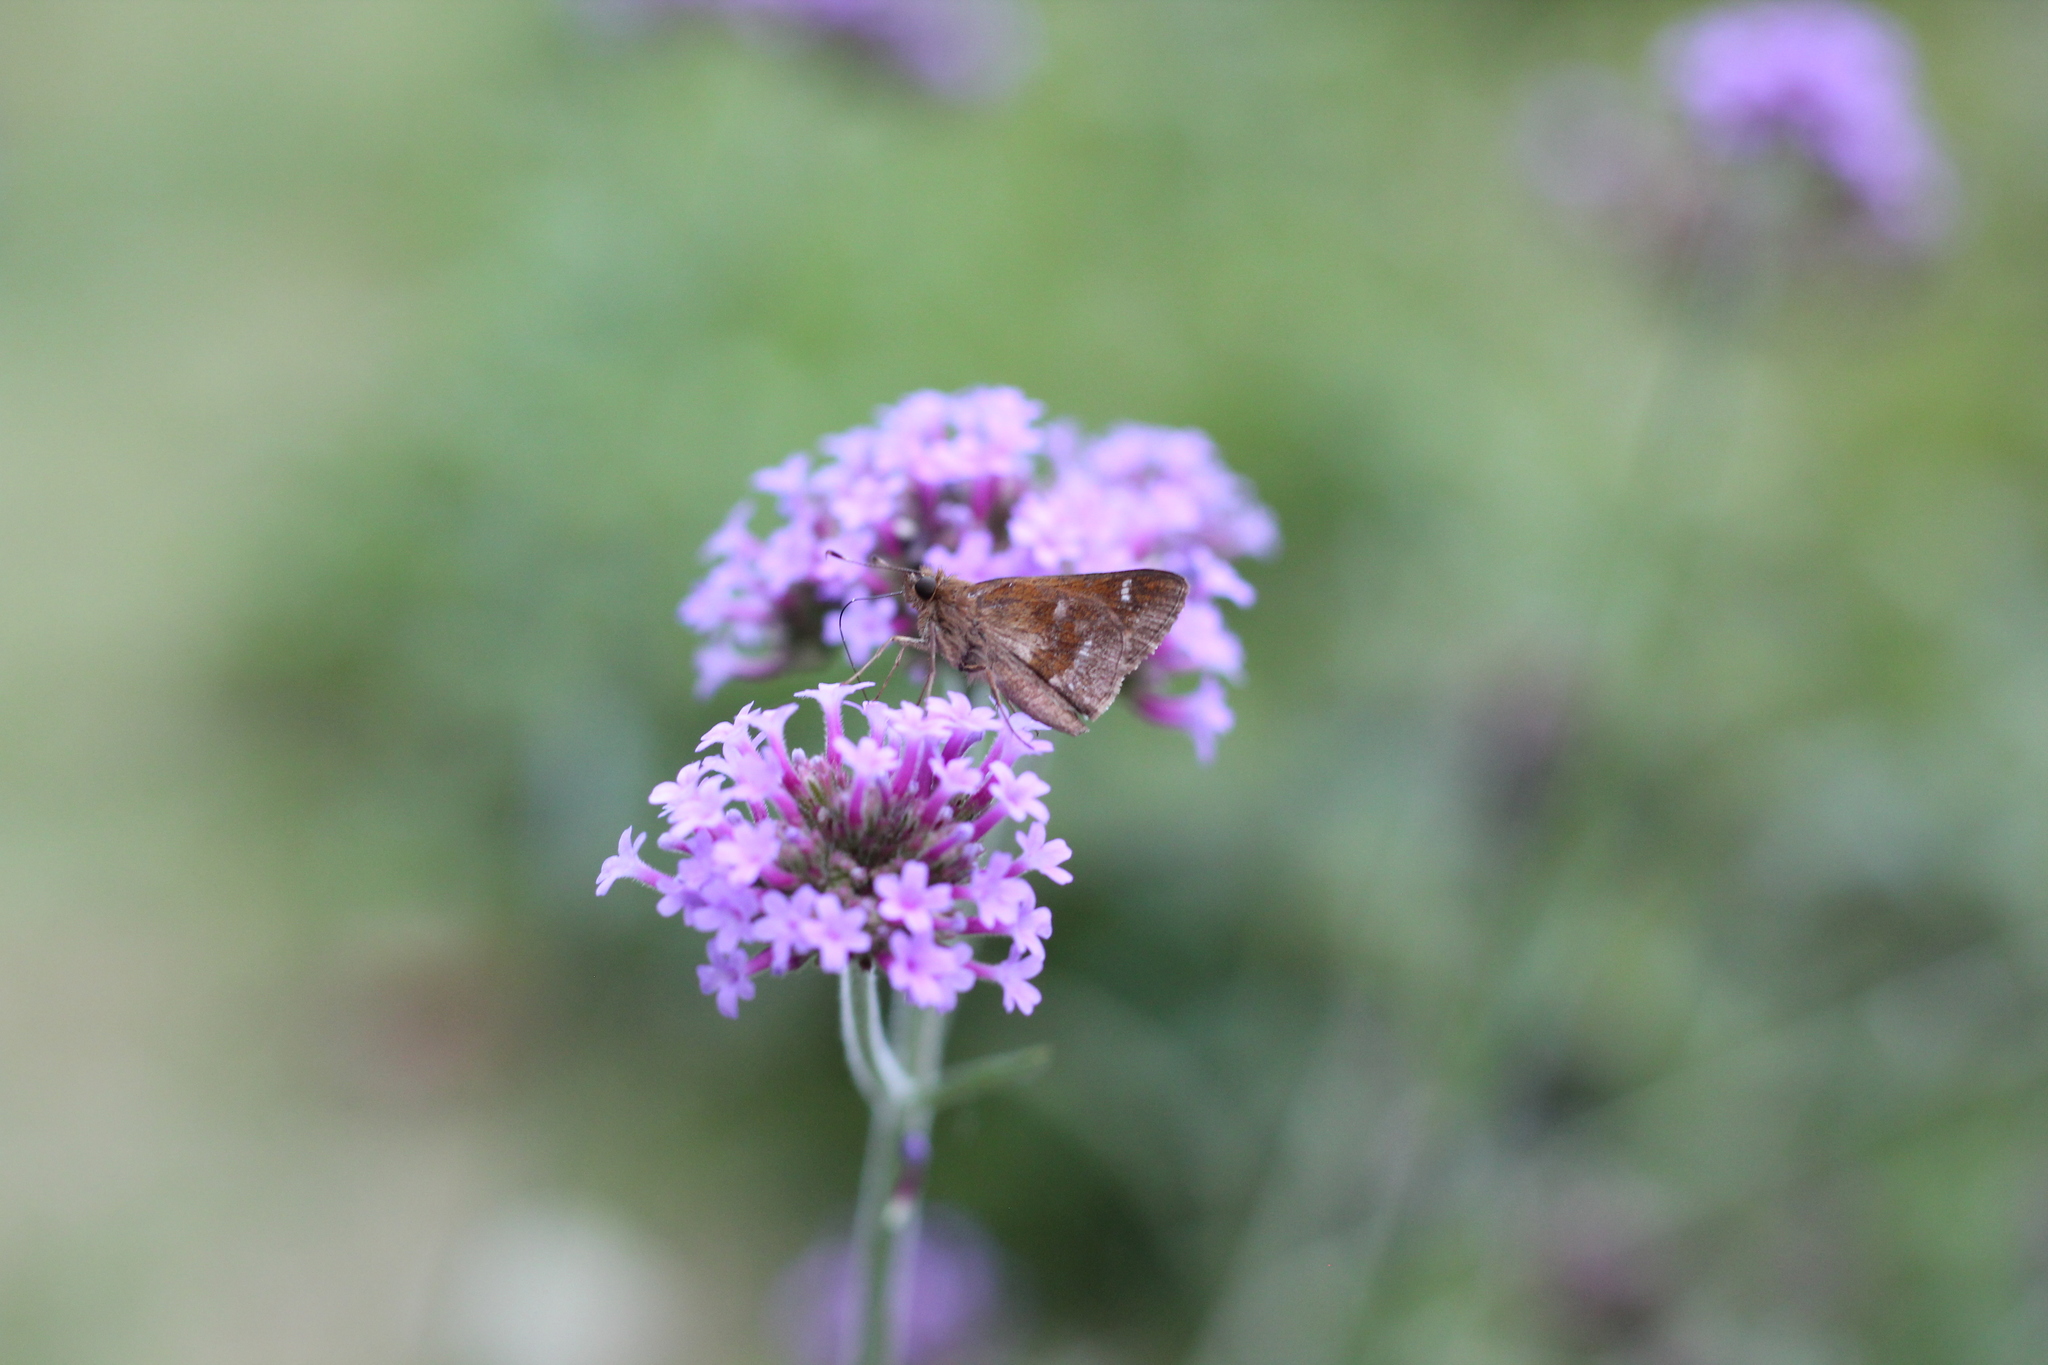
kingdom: Animalia
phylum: Arthropoda
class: Insecta
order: Lepidoptera
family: Hesperiidae
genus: Cymaenes
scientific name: Cymaenes
